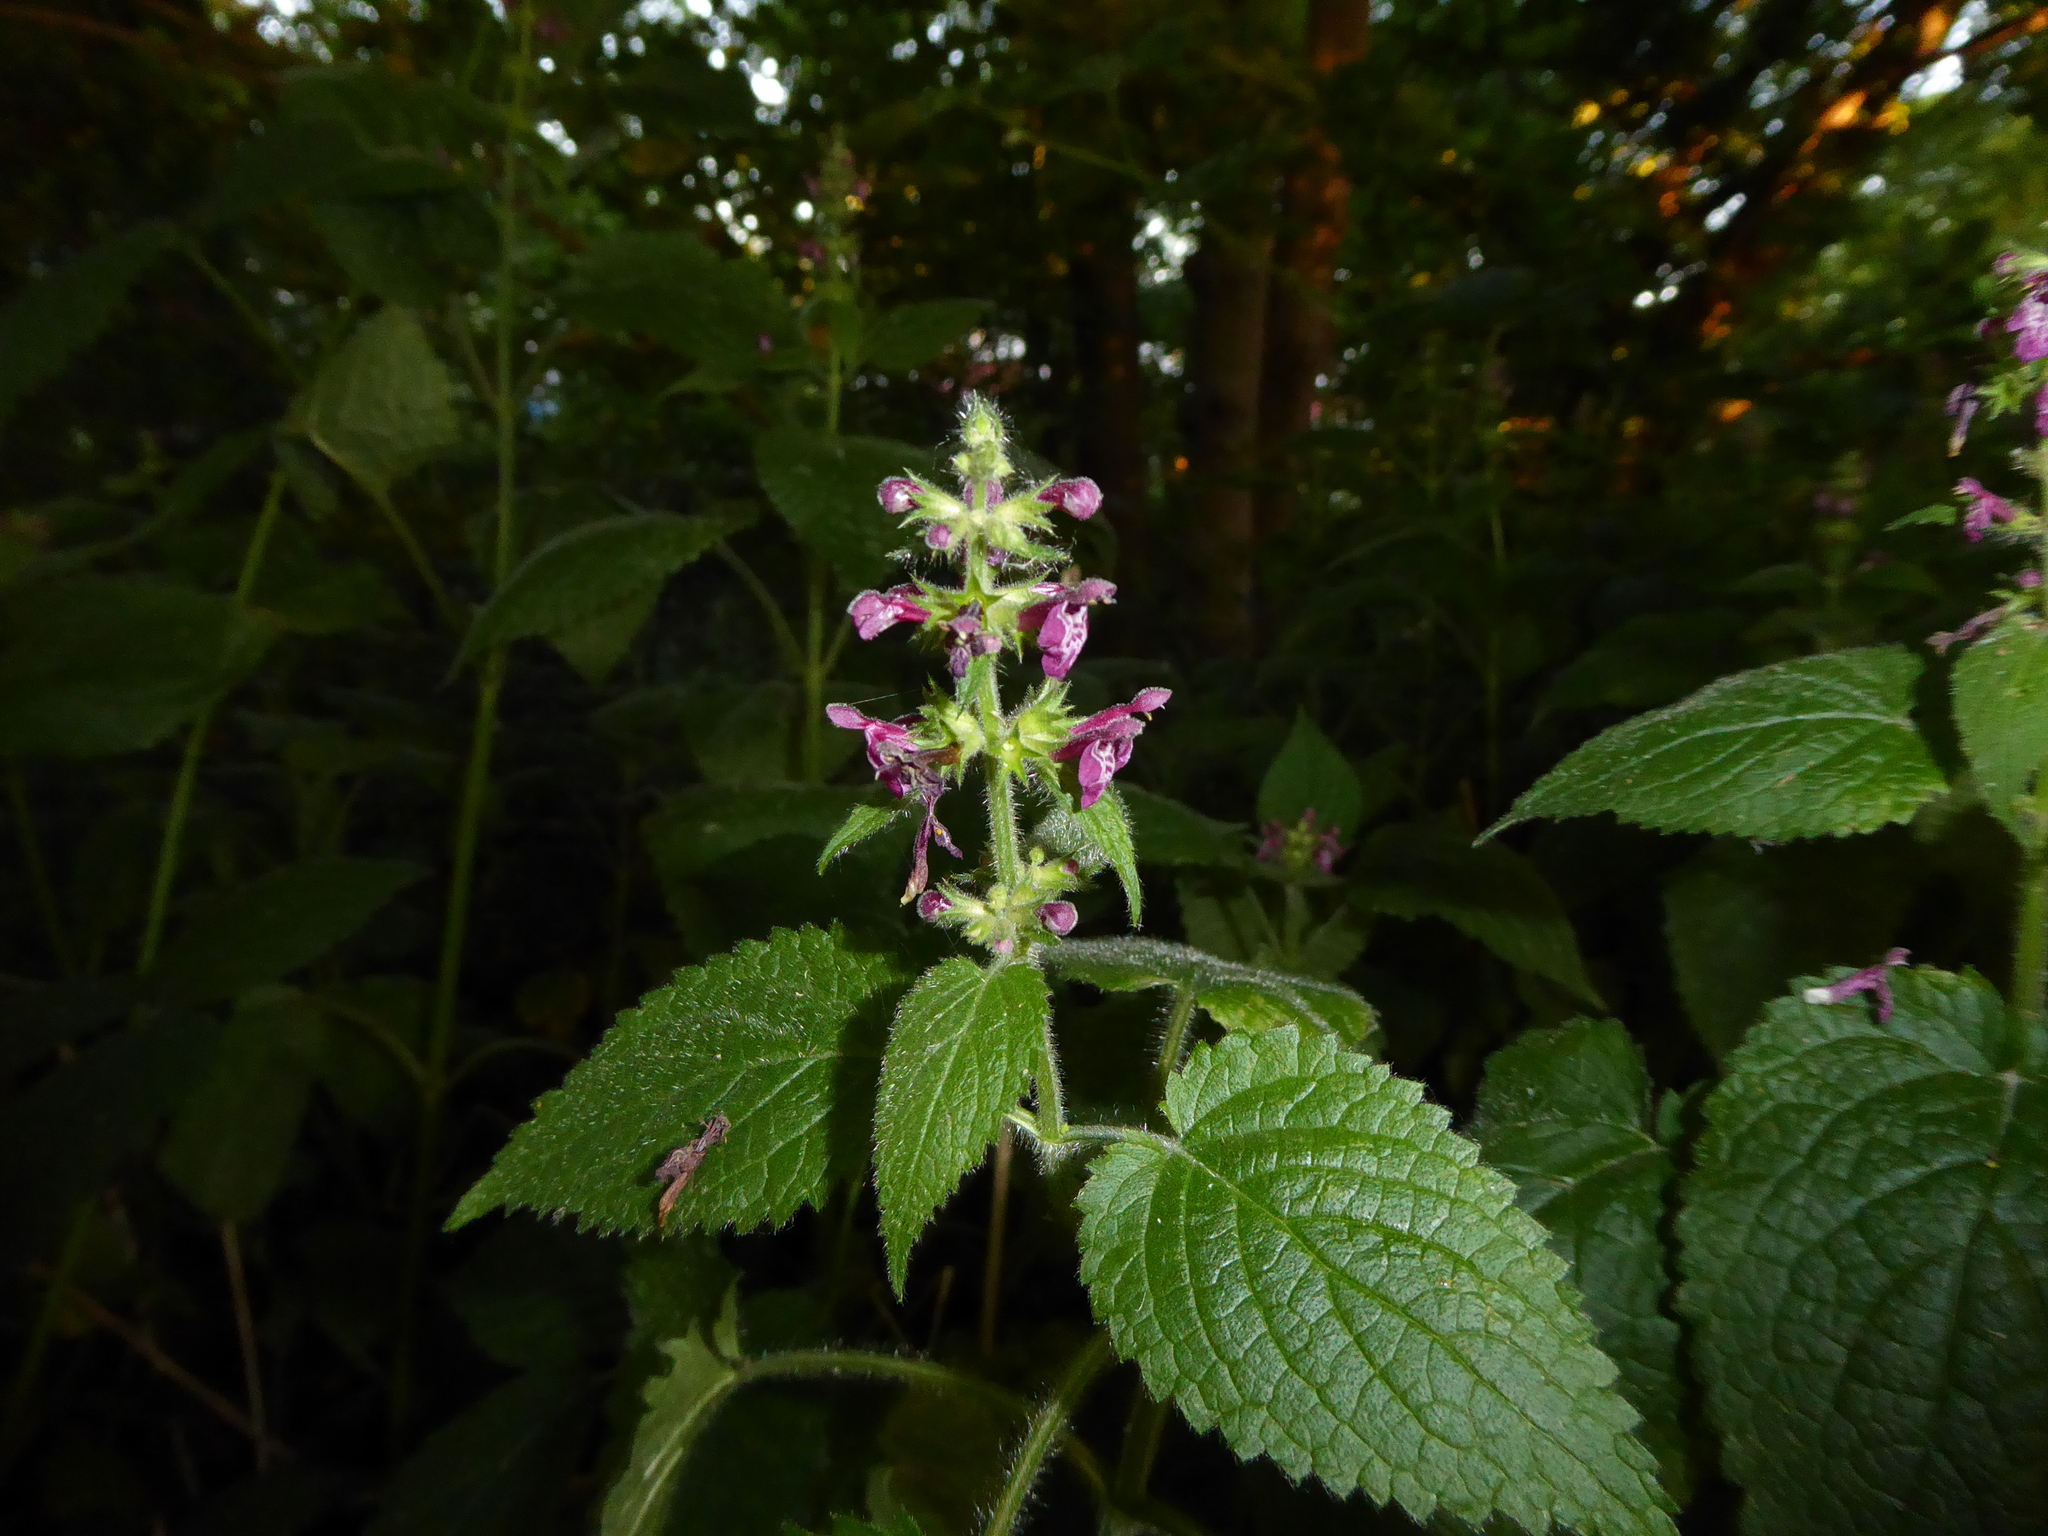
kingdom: Plantae
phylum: Tracheophyta
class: Magnoliopsida
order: Lamiales
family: Lamiaceae
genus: Stachys
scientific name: Stachys sylvatica
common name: Hedge woundwort
